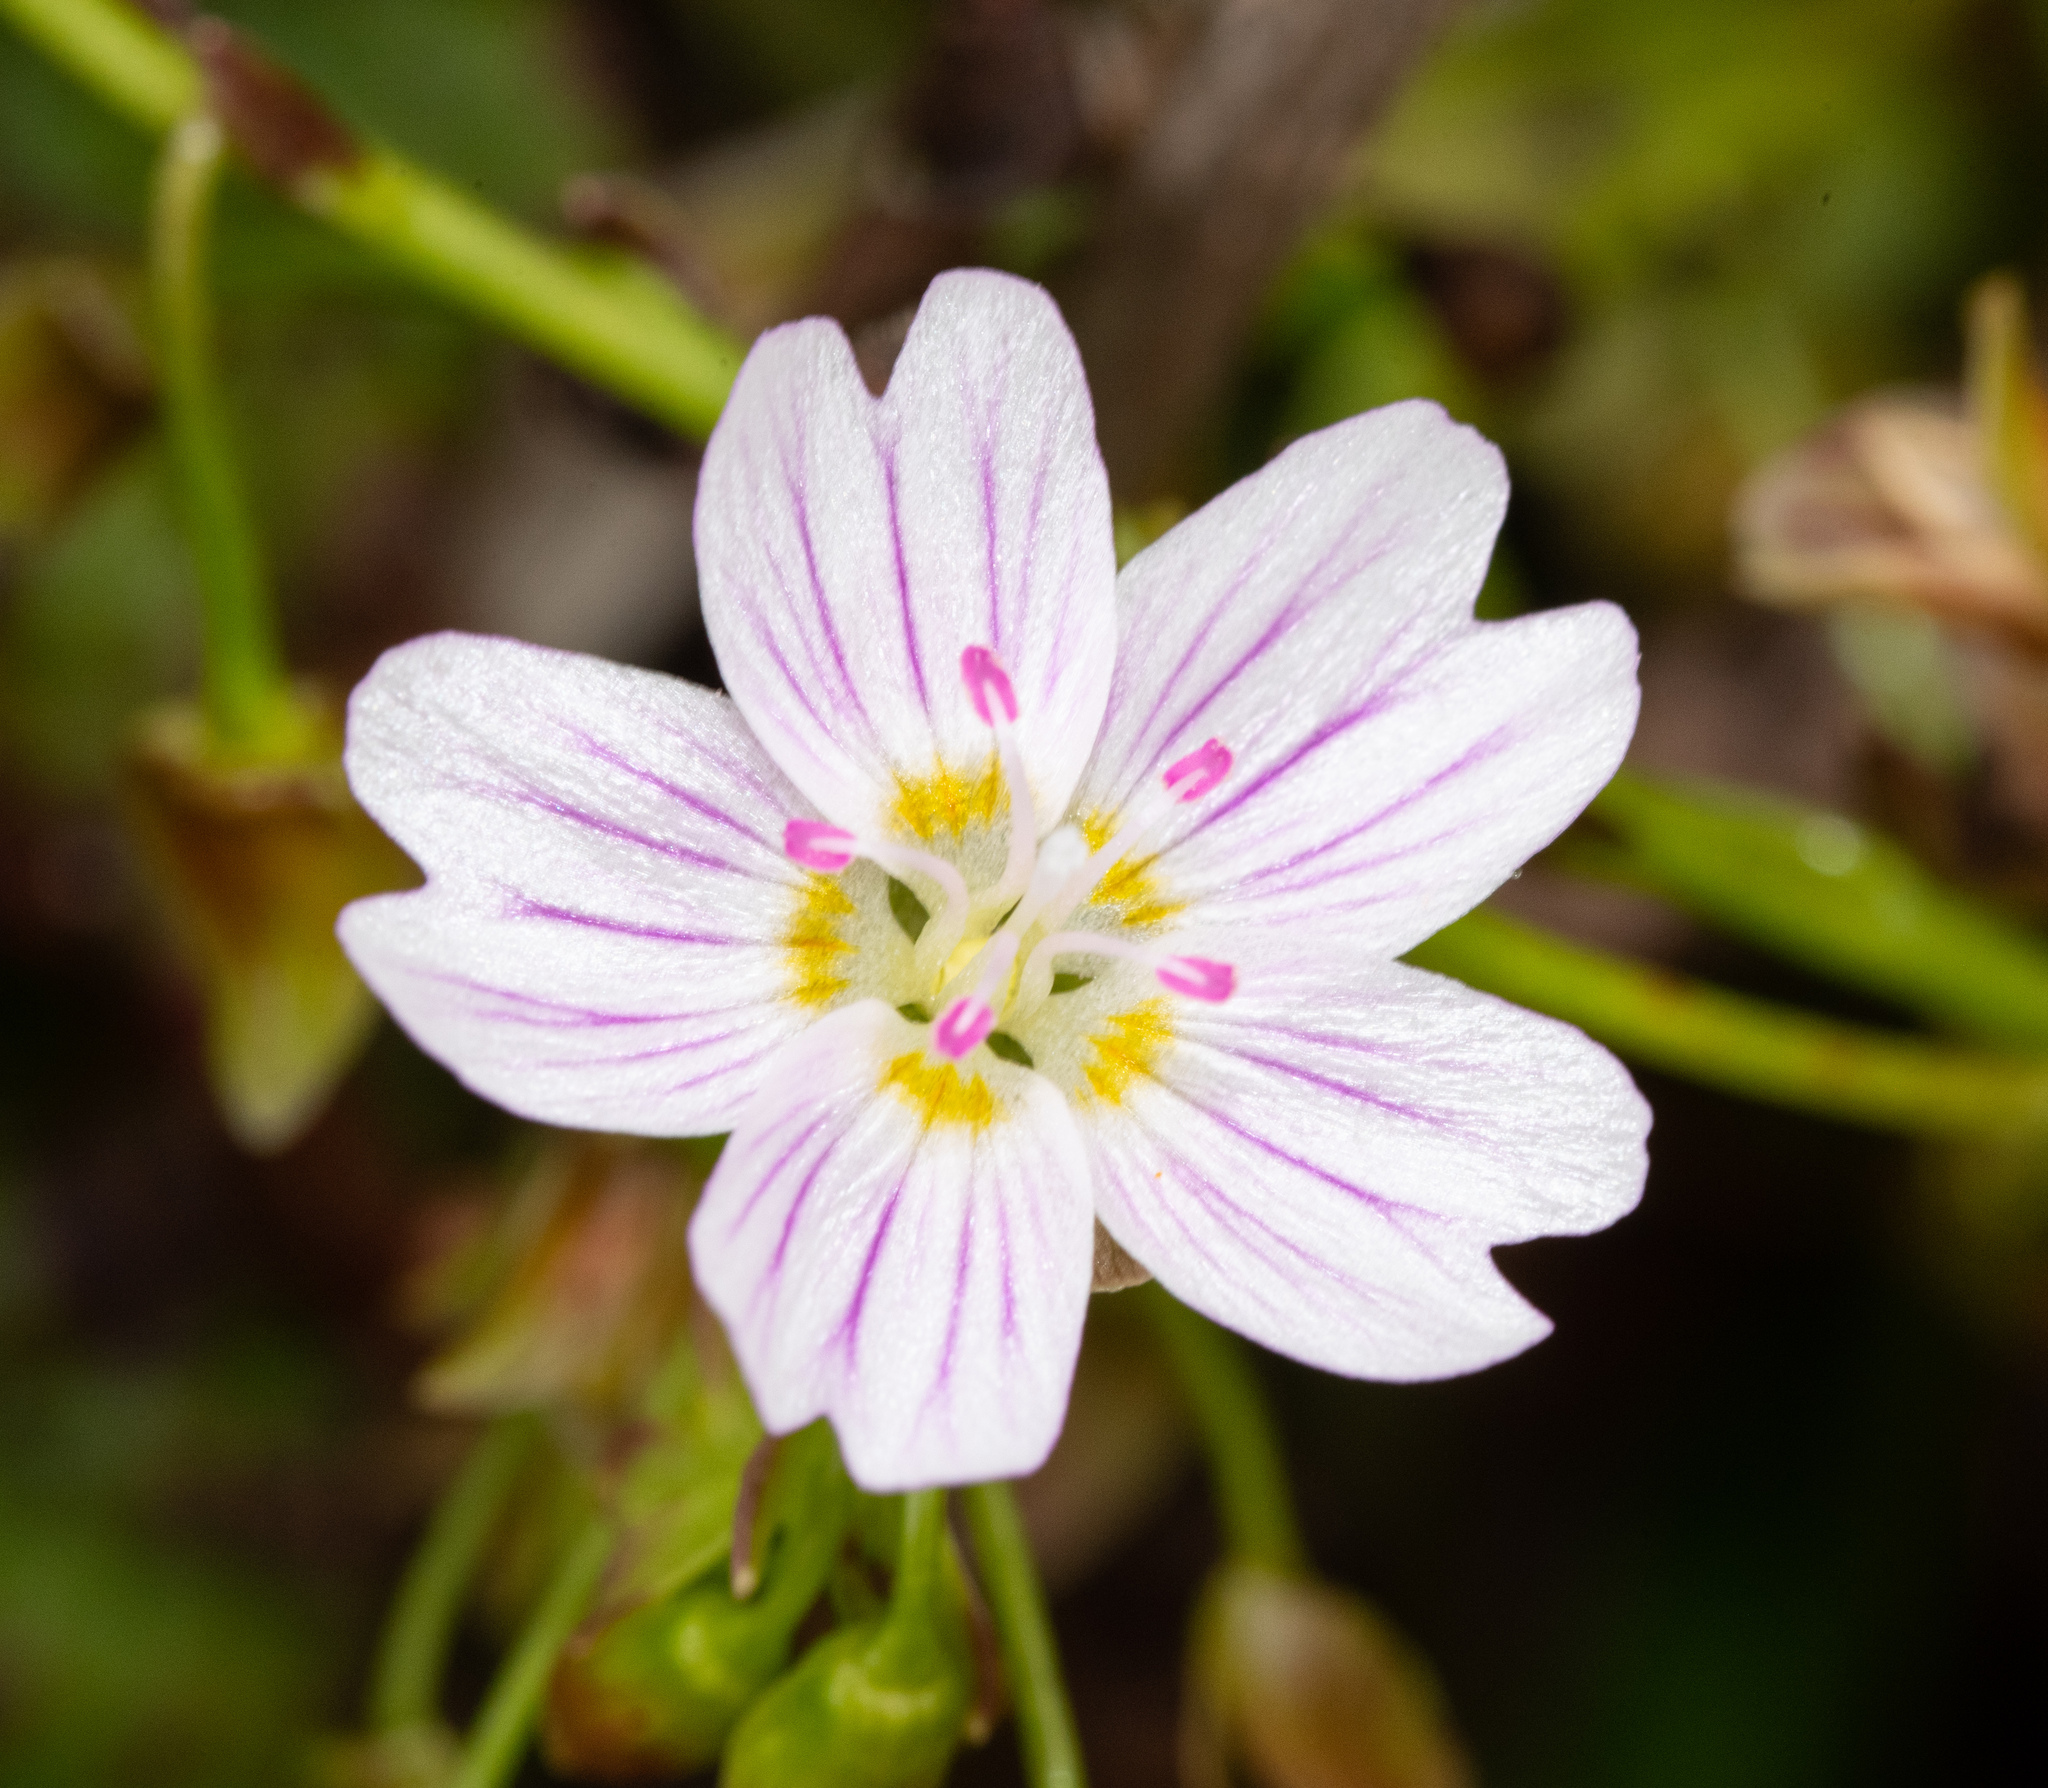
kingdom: Plantae
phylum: Tracheophyta
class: Magnoliopsida
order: Caryophyllales
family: Montiaceae
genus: Claytonia
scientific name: Claytonia sibirica
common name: Pink purslane
